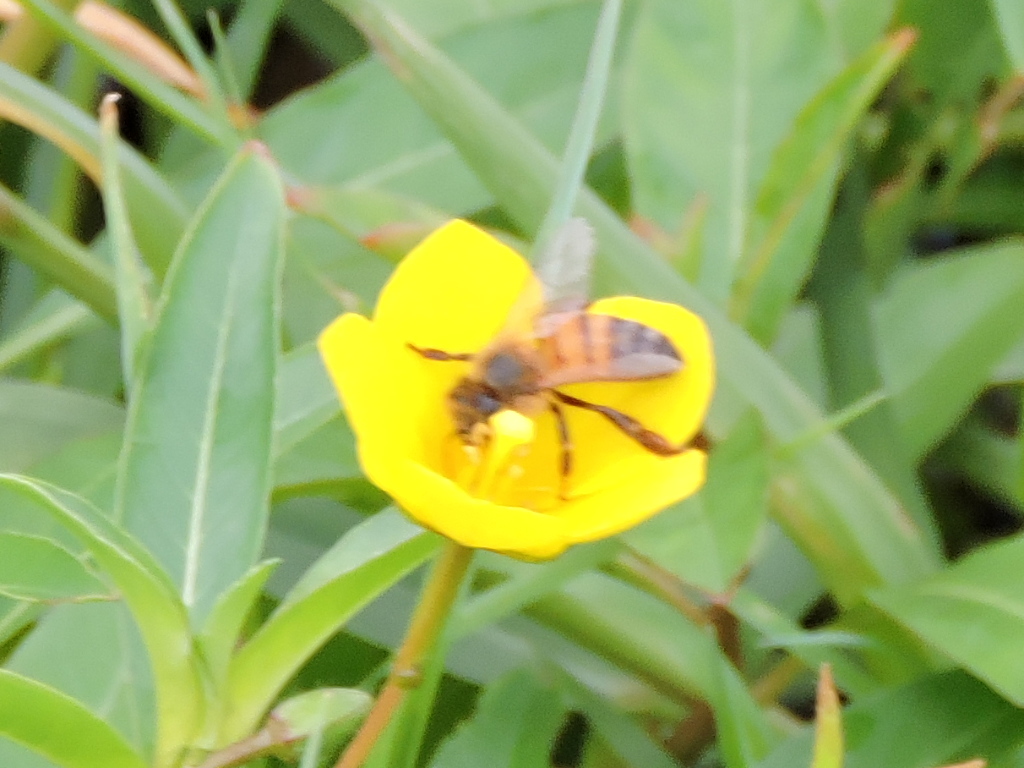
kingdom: Animalia
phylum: Arthropoda
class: Insecta
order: Hymenoptera
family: Apidae
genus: Apis
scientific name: Apis mellifera
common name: Honey bee
